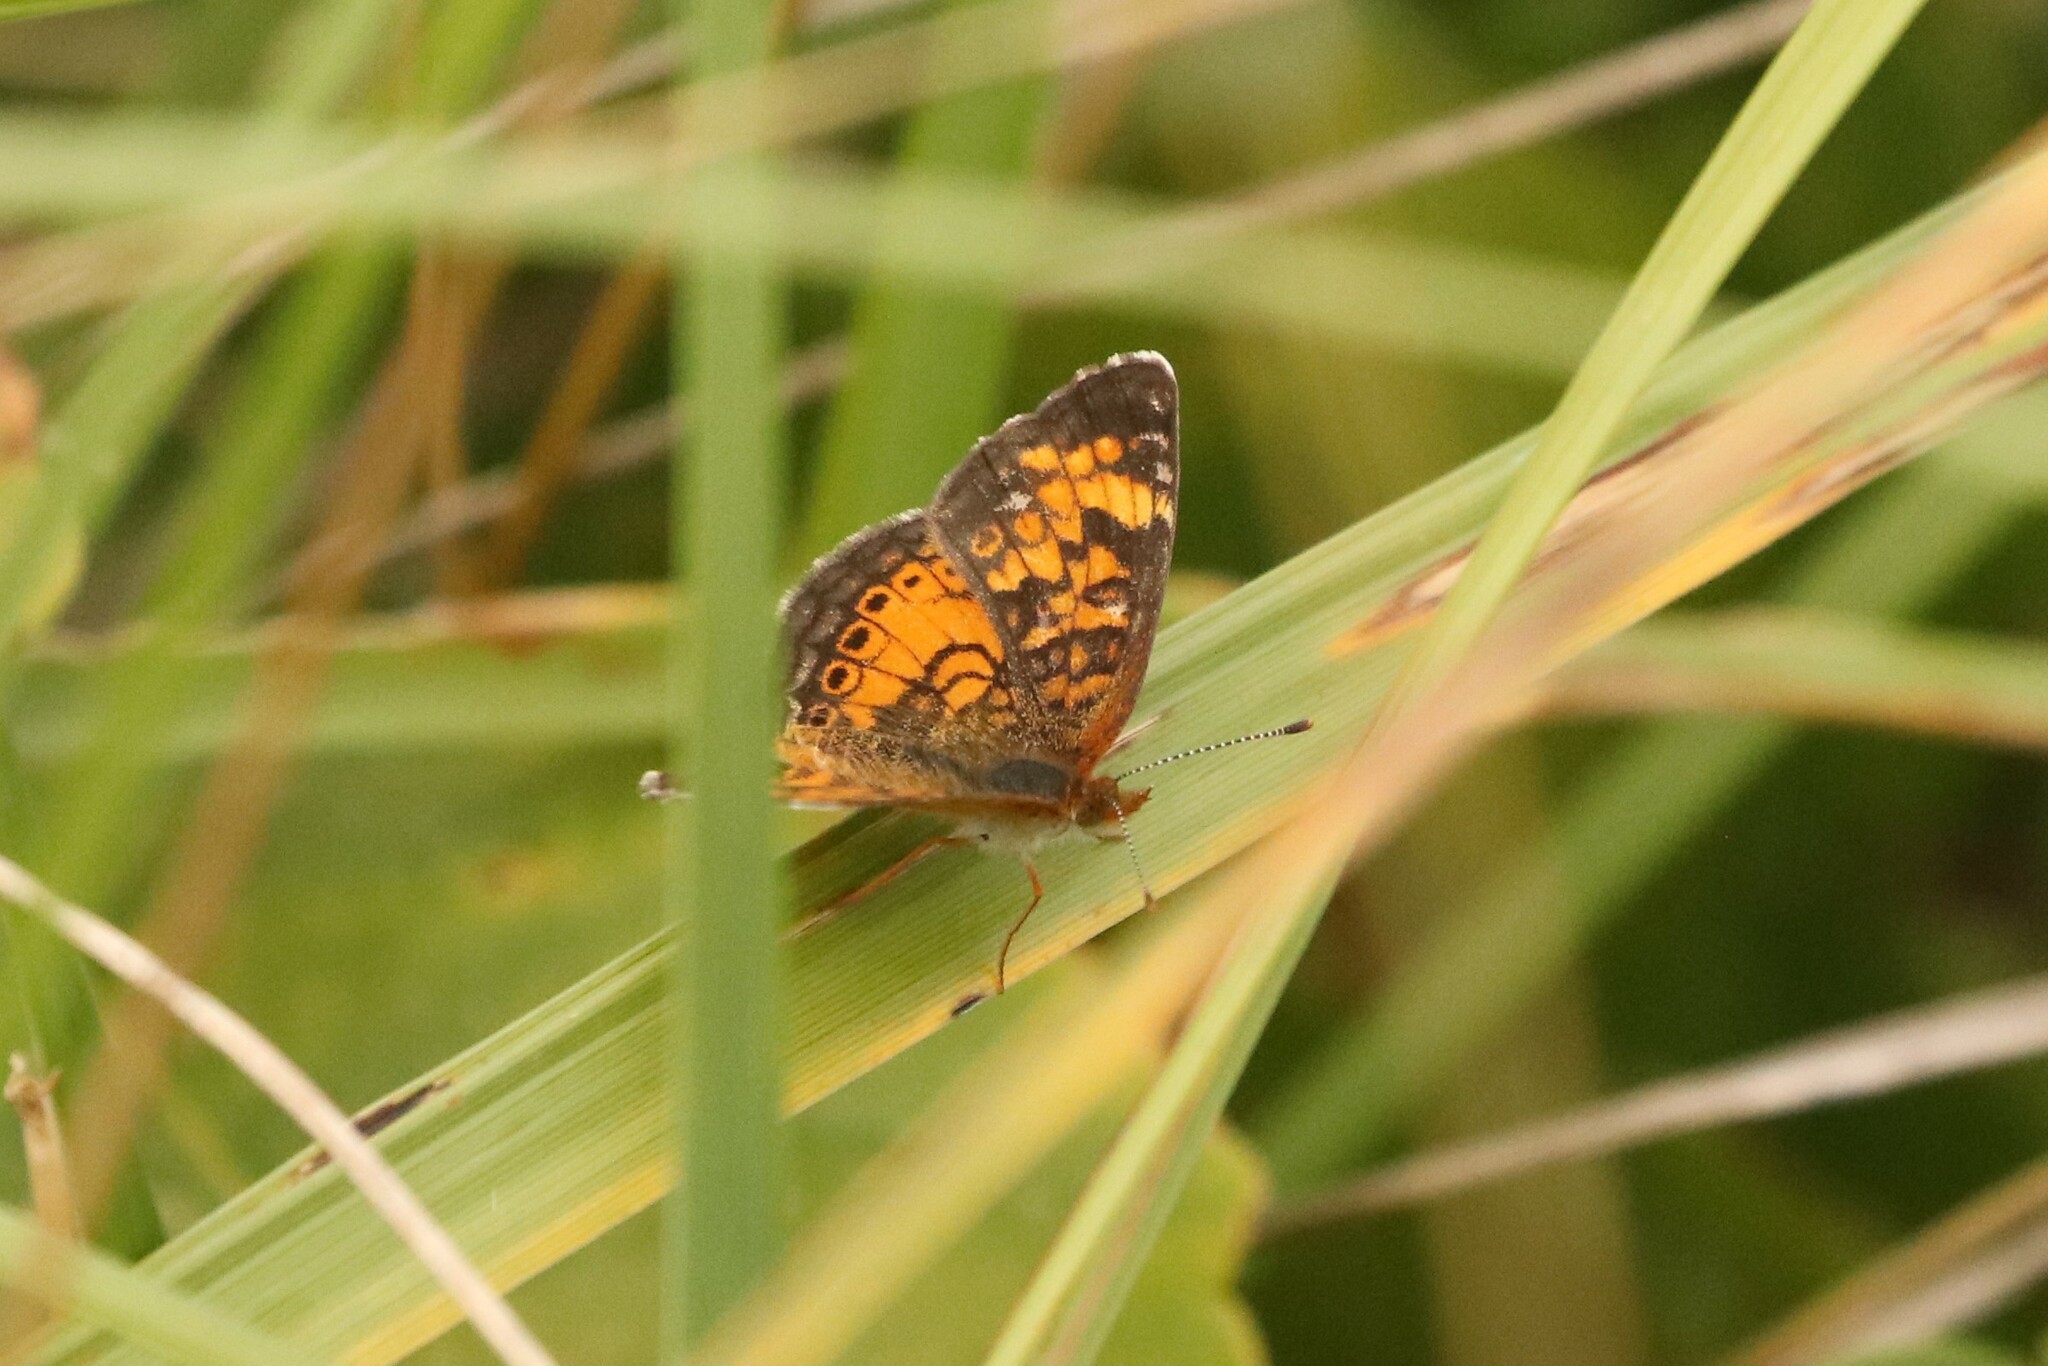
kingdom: Animalia
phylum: Arthropoda
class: Insecta
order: Lepidoptera
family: Nymphalidae
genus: Phyciodes
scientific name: Phyciodes tharos
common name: Pearl crescent
